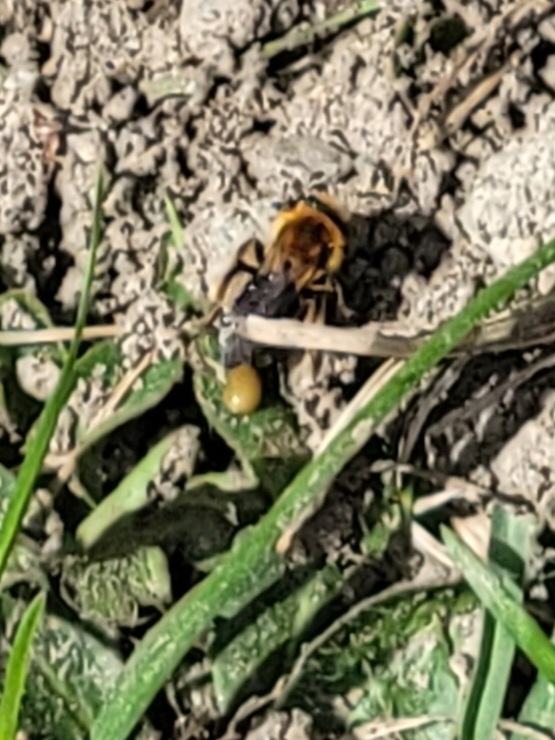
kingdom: Animalia
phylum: Arthropoda
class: Insecta
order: Hymenoptera
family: Andrenidae
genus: Andrena
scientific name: Andrena dunningi
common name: Dunning's miner
